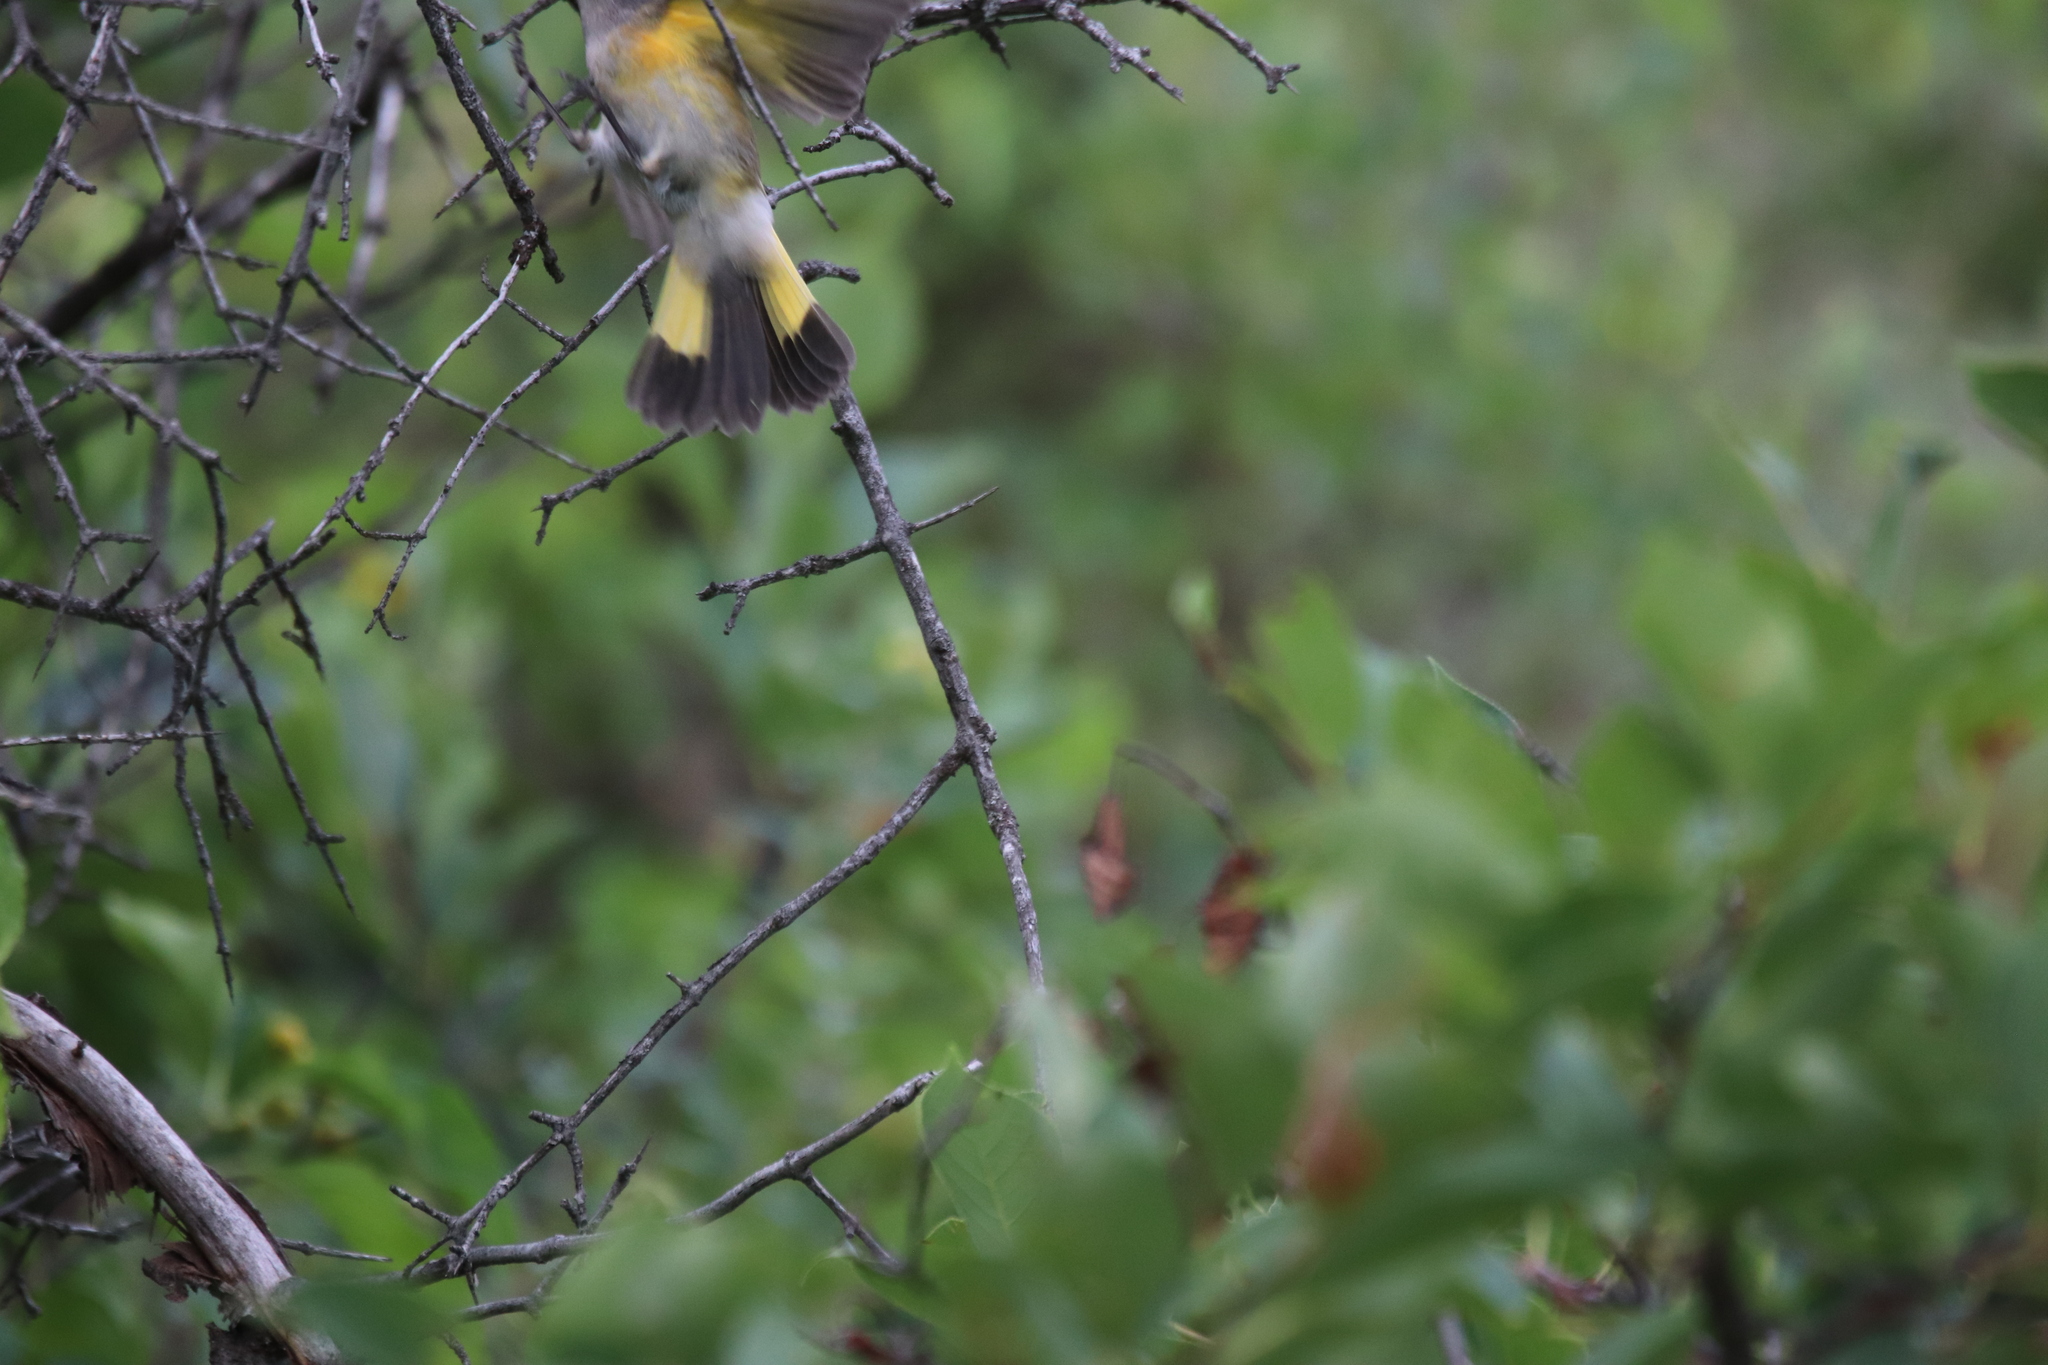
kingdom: Animalia
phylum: Chordata
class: Aves
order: Passeriformes
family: Parulidae
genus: Setophaga
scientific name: Setophaga ruticilla
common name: American redstart
